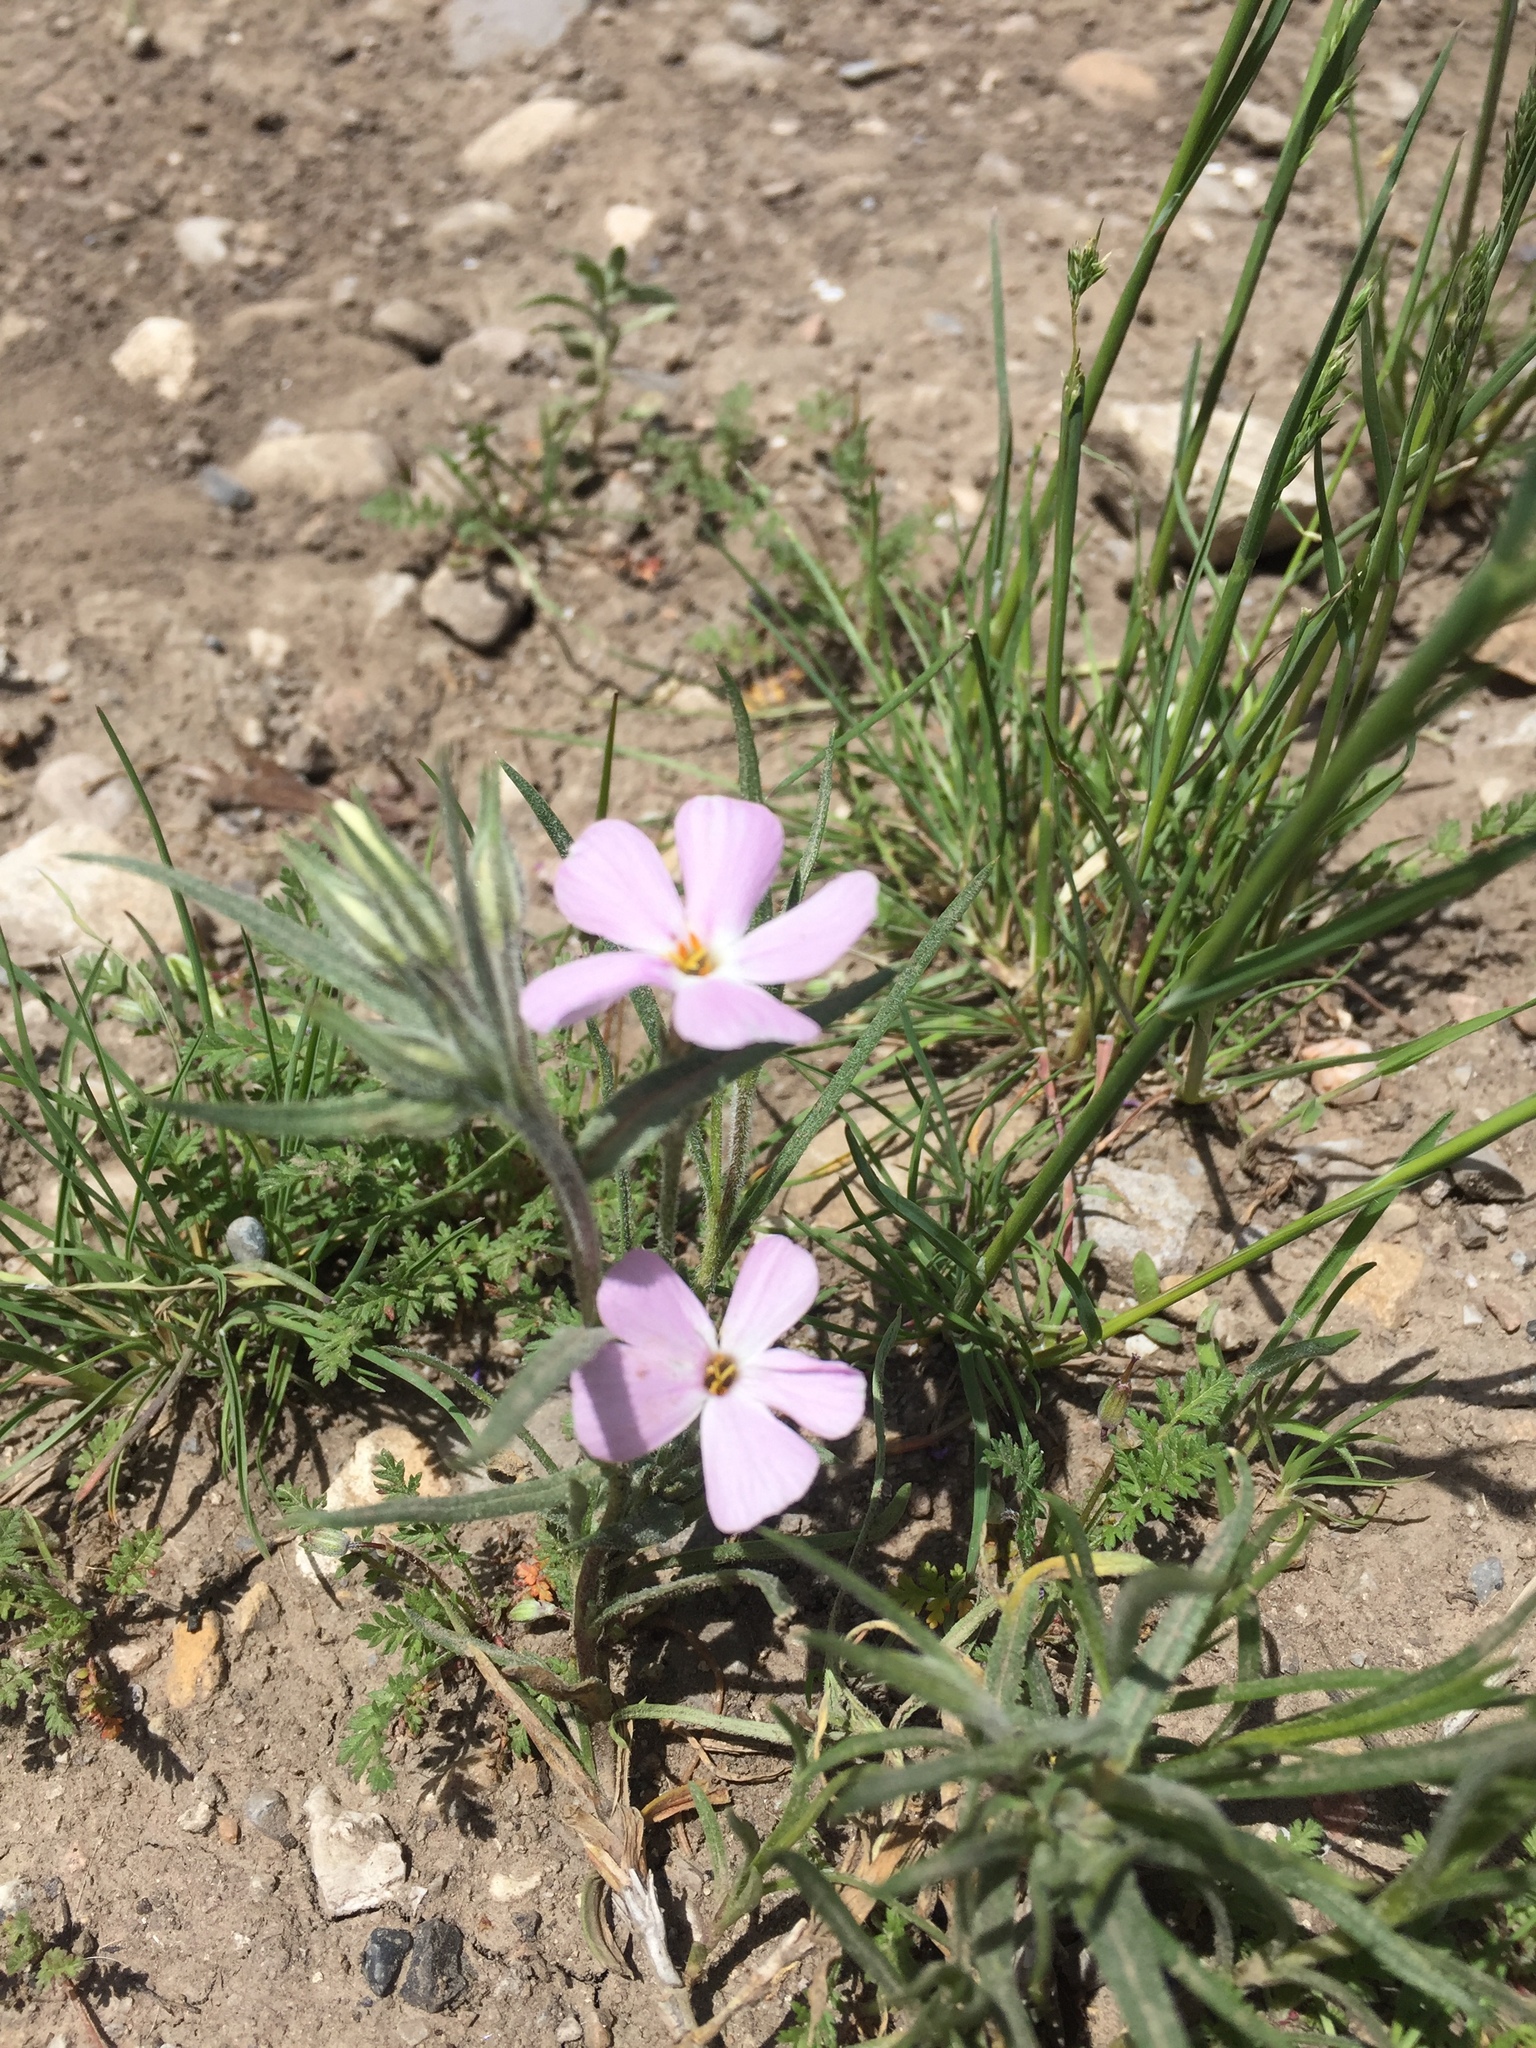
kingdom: Plantae
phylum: Tracheophyta
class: Magnoliopsida
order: Ericales
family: Polemoniaceae
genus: Phlox
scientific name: Phlox longifolia
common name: Longleaf phlox
